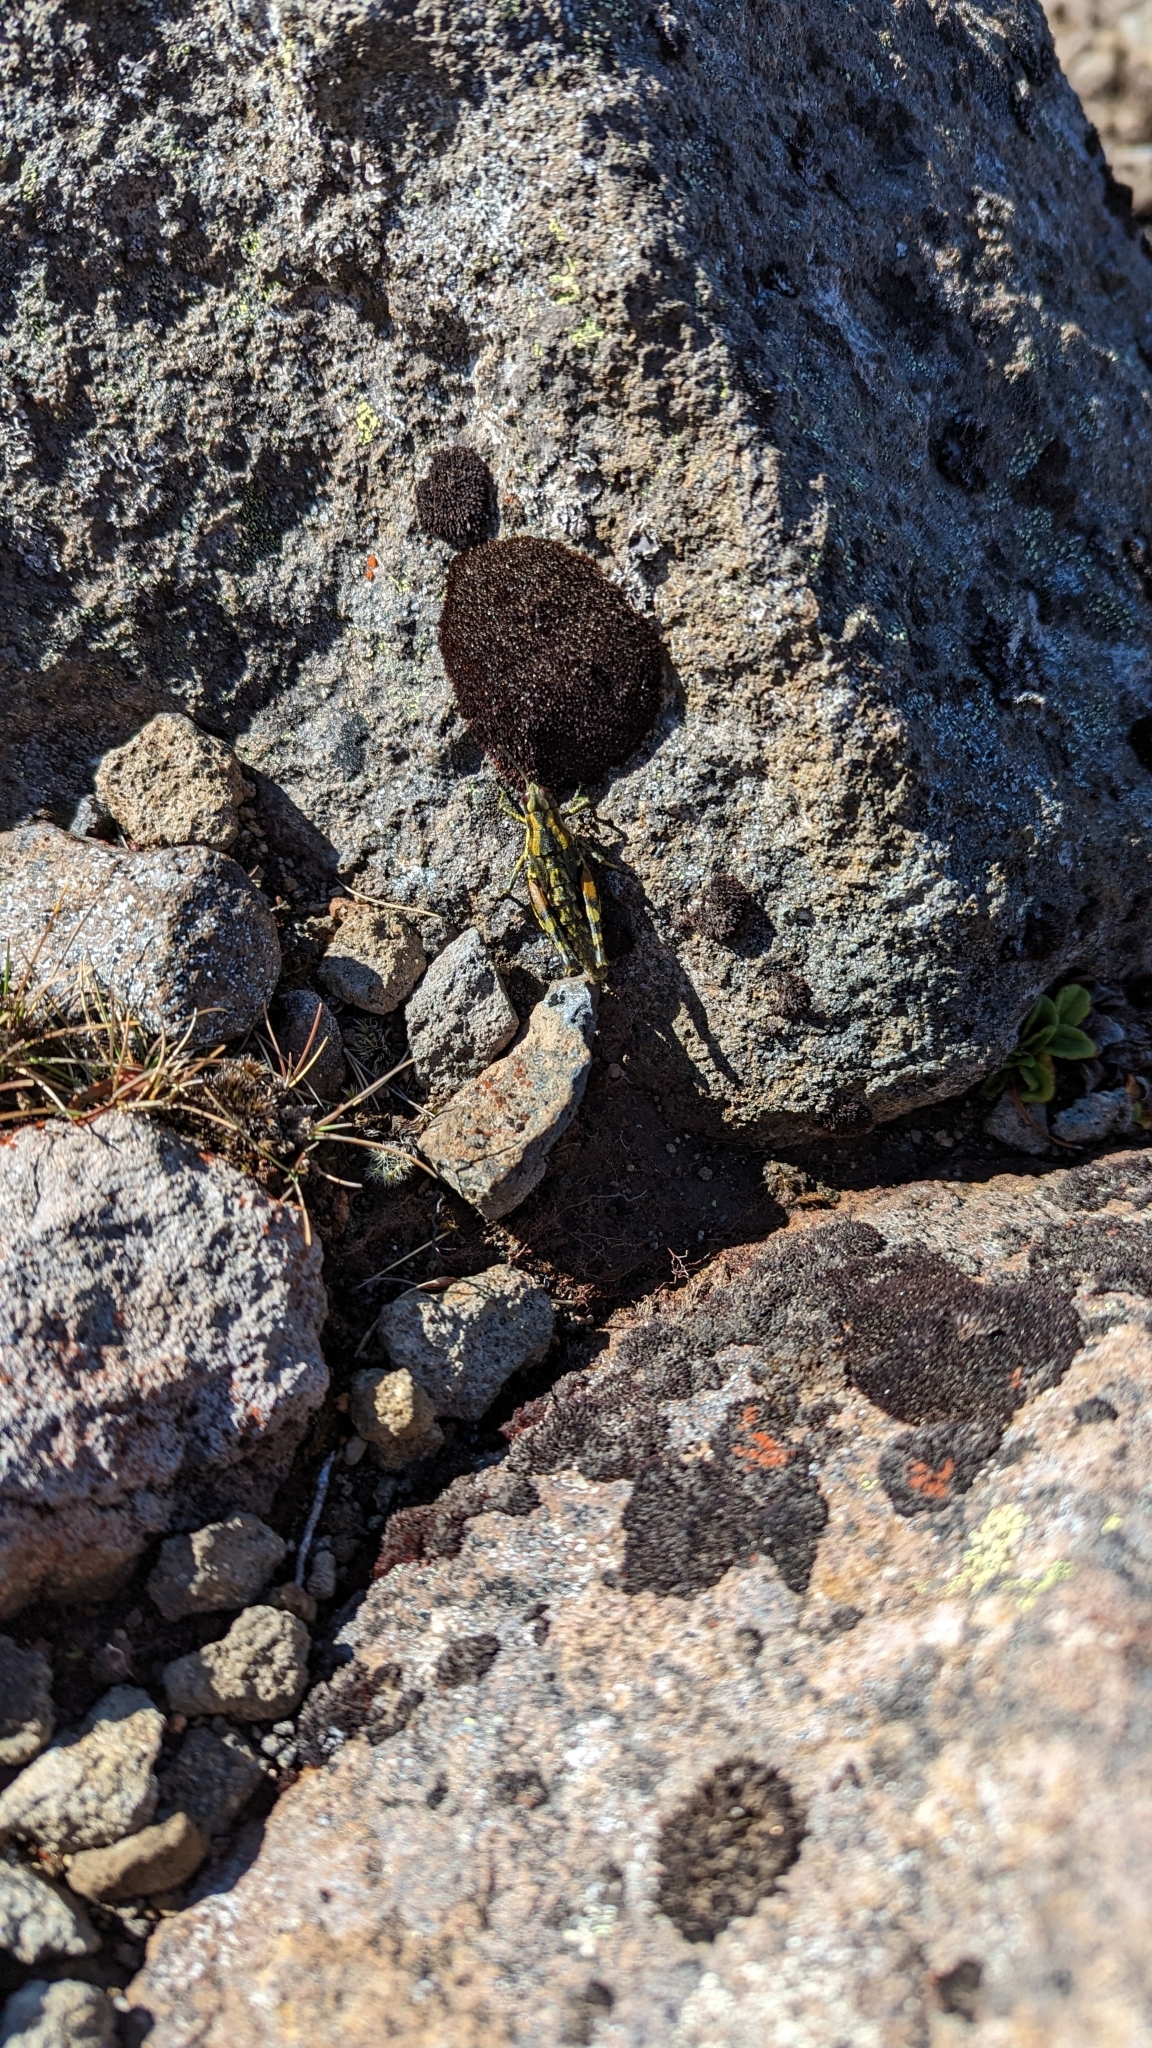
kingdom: Animalia
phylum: Arthropoda
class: Insecta
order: Orthoptera
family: Acrididae
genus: Sigaus
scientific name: Sigaus piliferus
